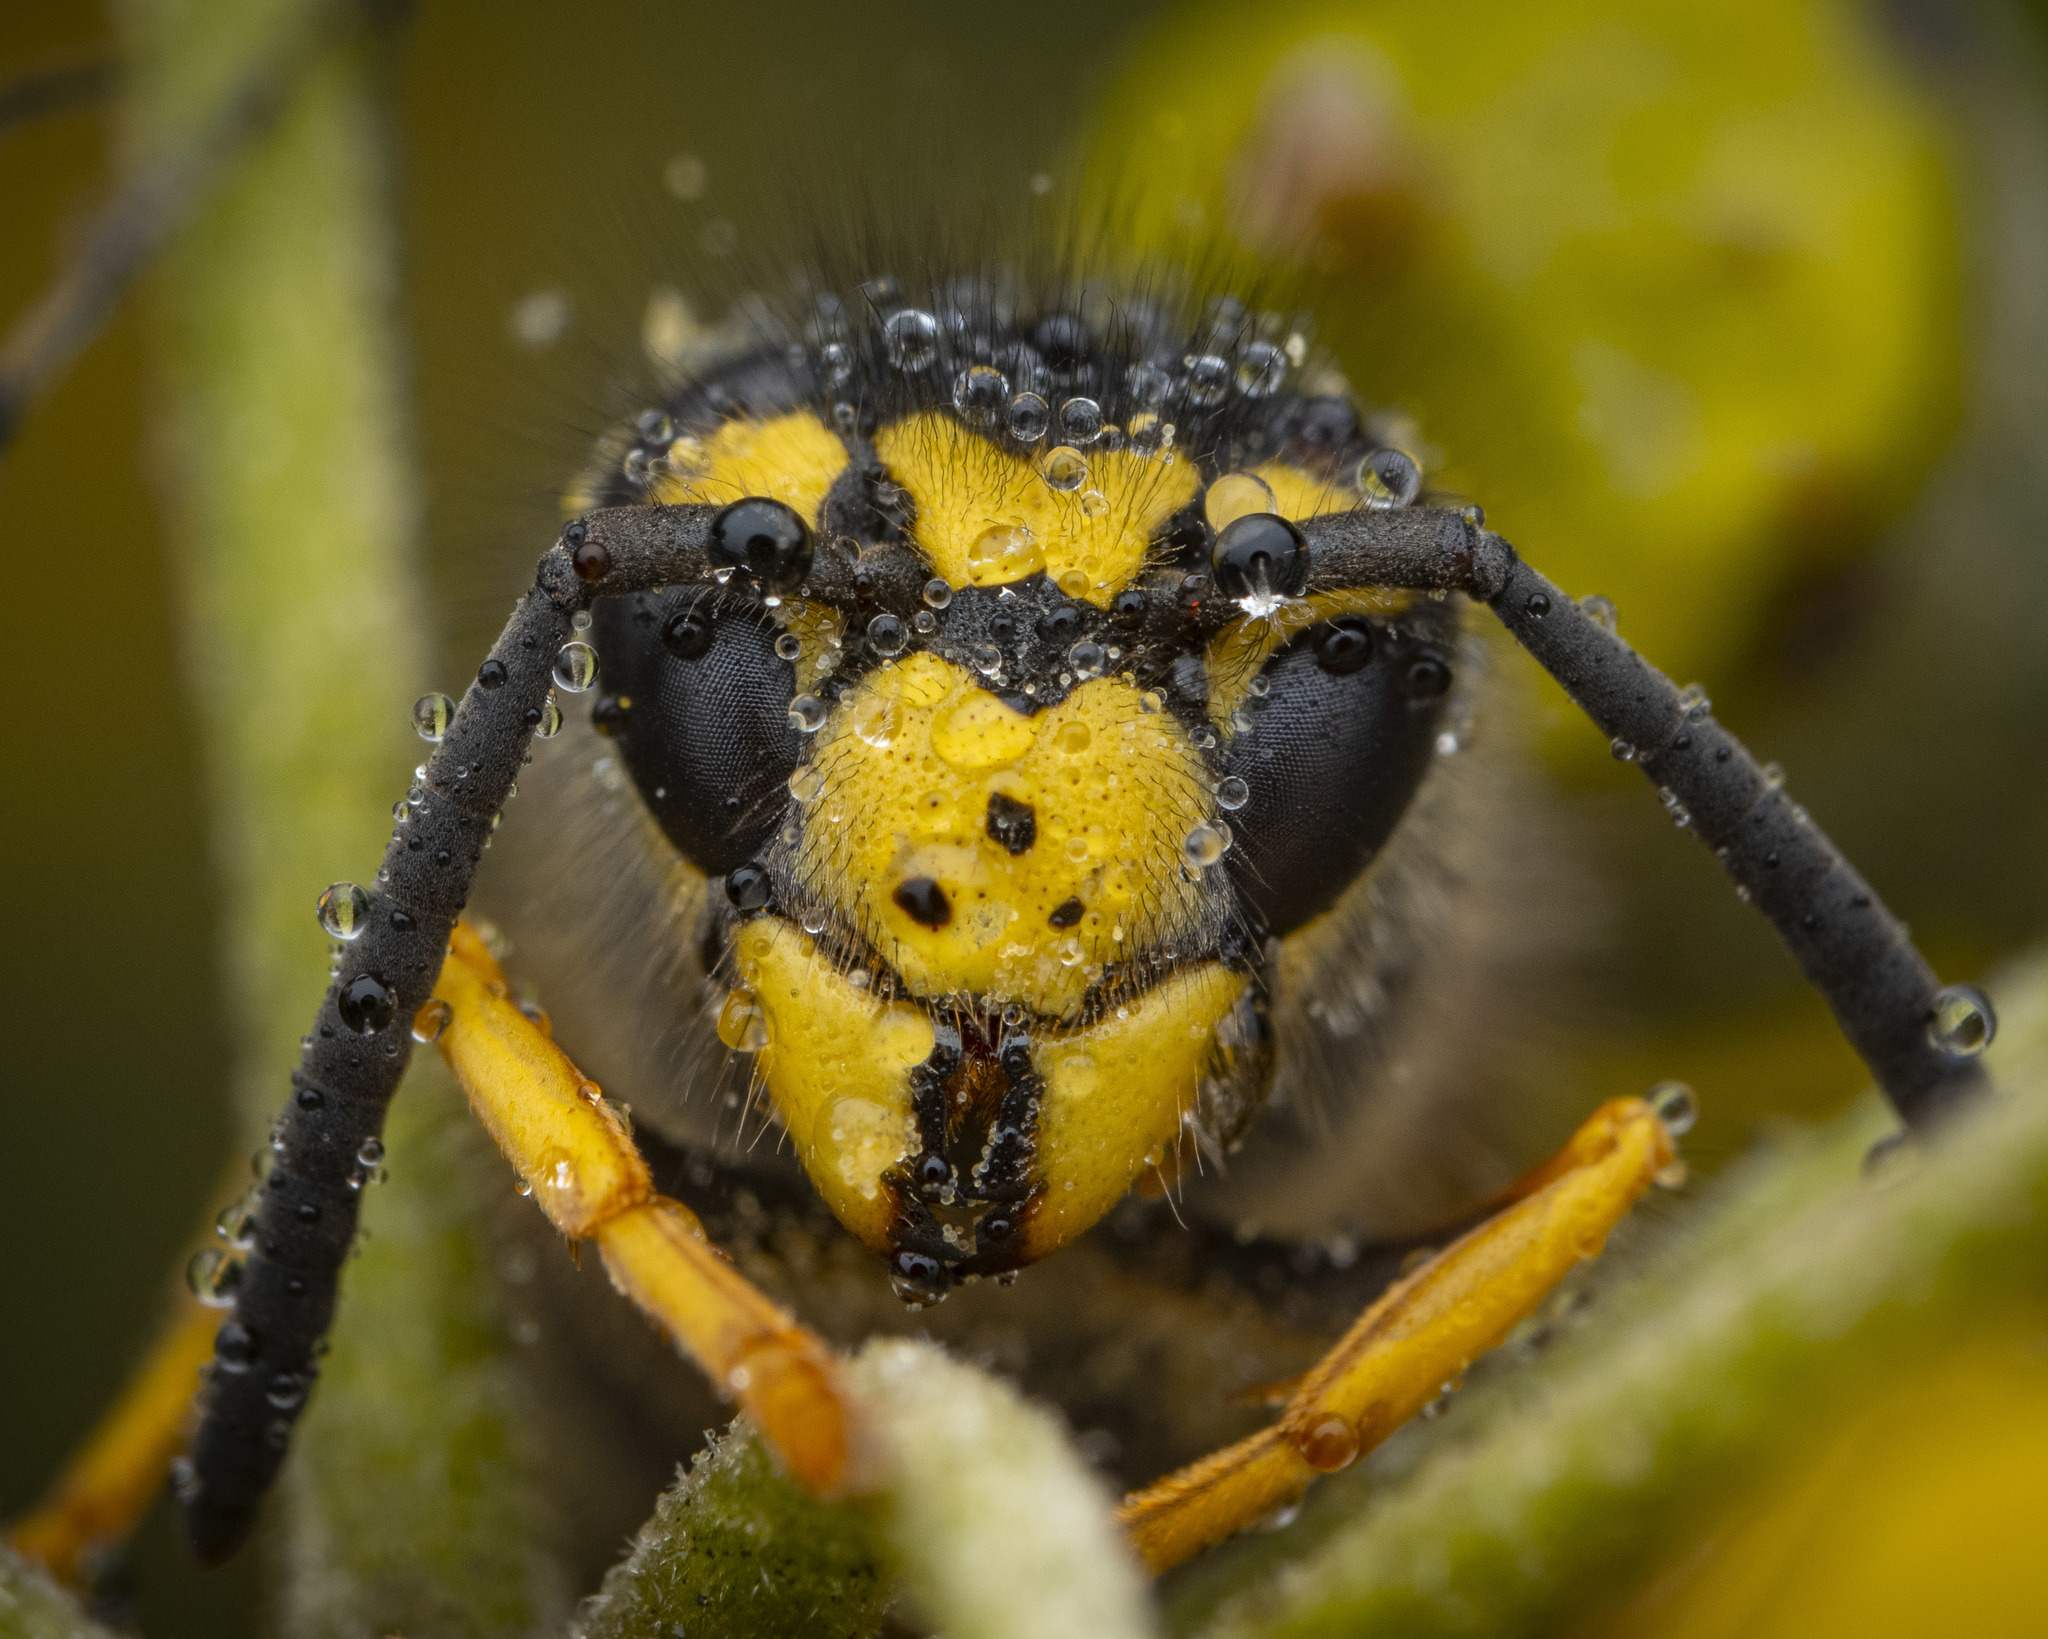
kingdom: Animalia
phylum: Arthropoda
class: Insecta
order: Hymenoptera
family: Vespidae
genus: Vespula
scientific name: Vespula germanica
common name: German wasp
